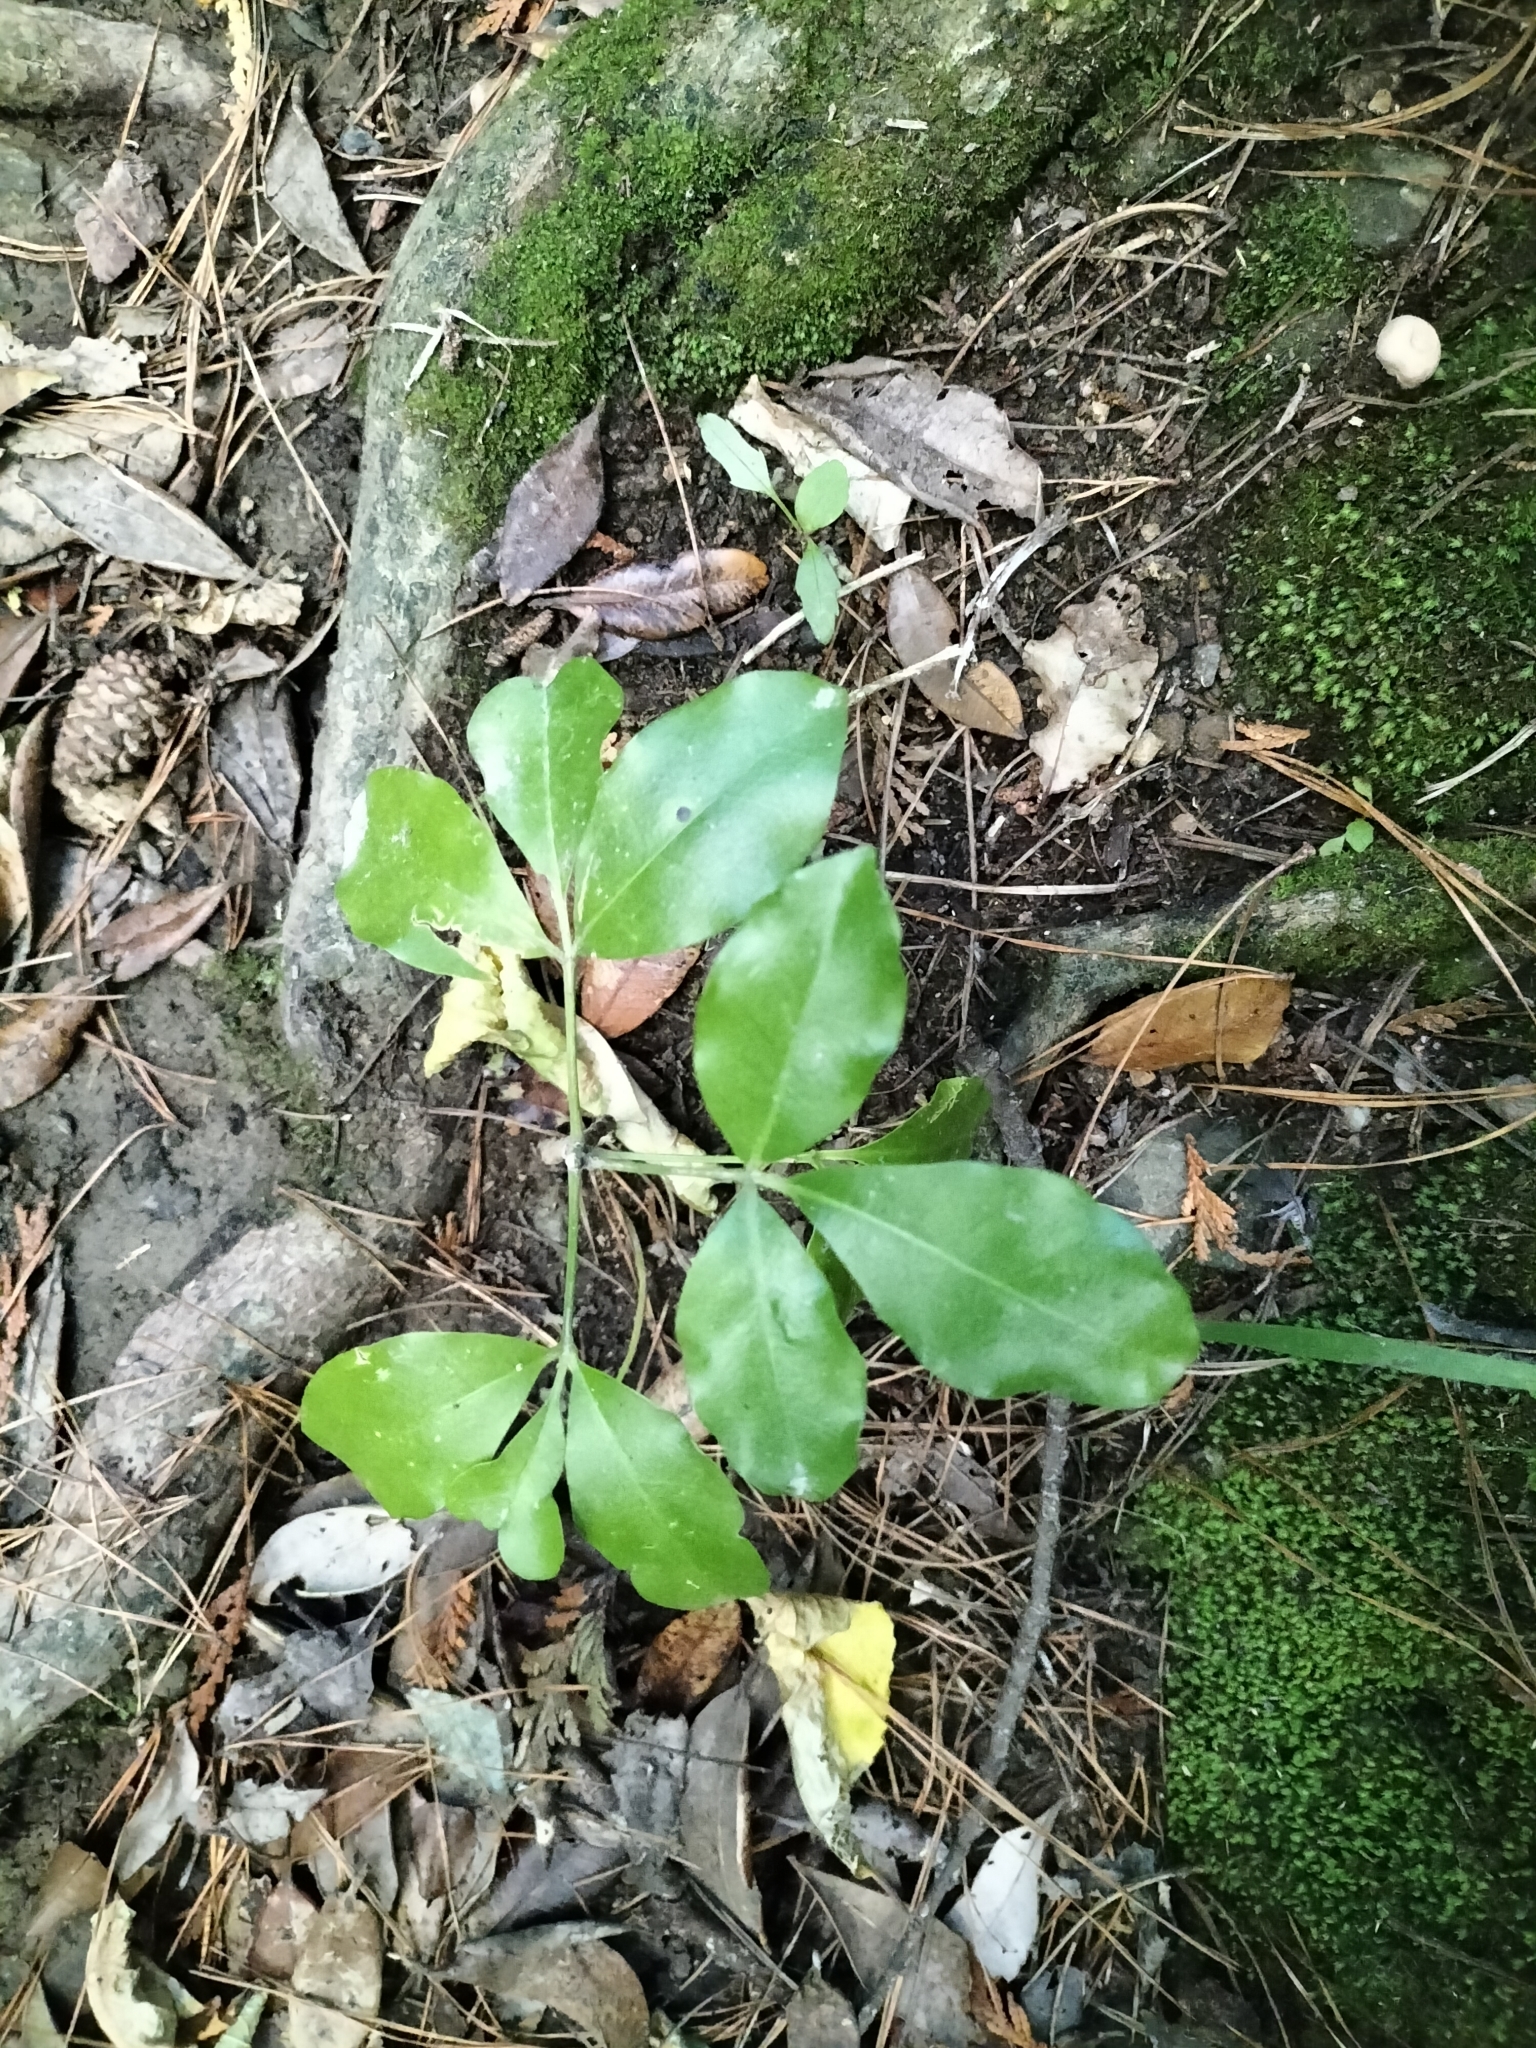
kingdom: Plantae
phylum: Tracheophyta
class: Magnoliopsida
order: Sapindales
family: Rutaceae
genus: Melicope
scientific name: Melicope ternata
